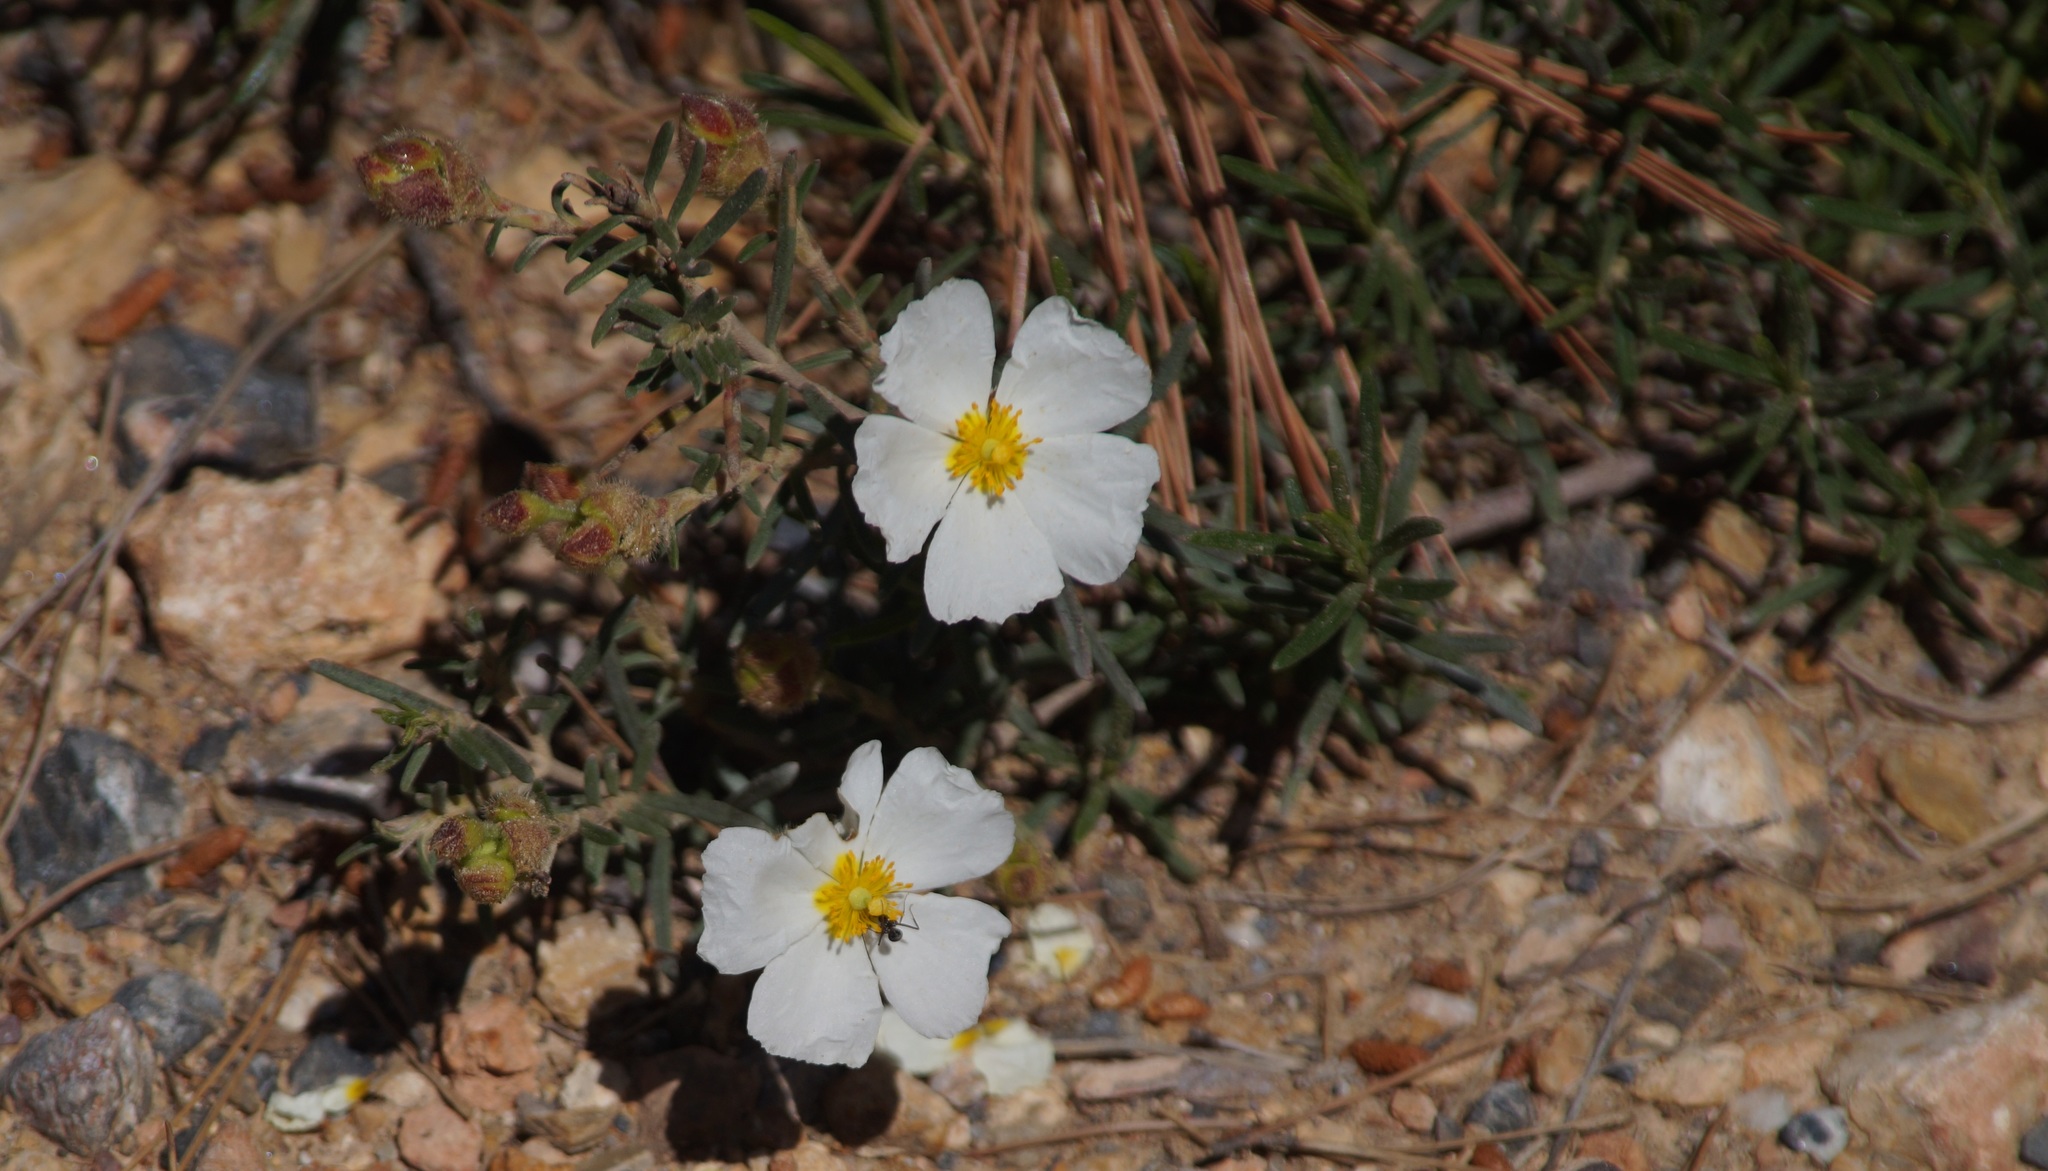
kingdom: Plantae
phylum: Tracheophyta
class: Magnoliopsida
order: Malvales
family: Cistaceae
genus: Cistus
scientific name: Cistus clusii
